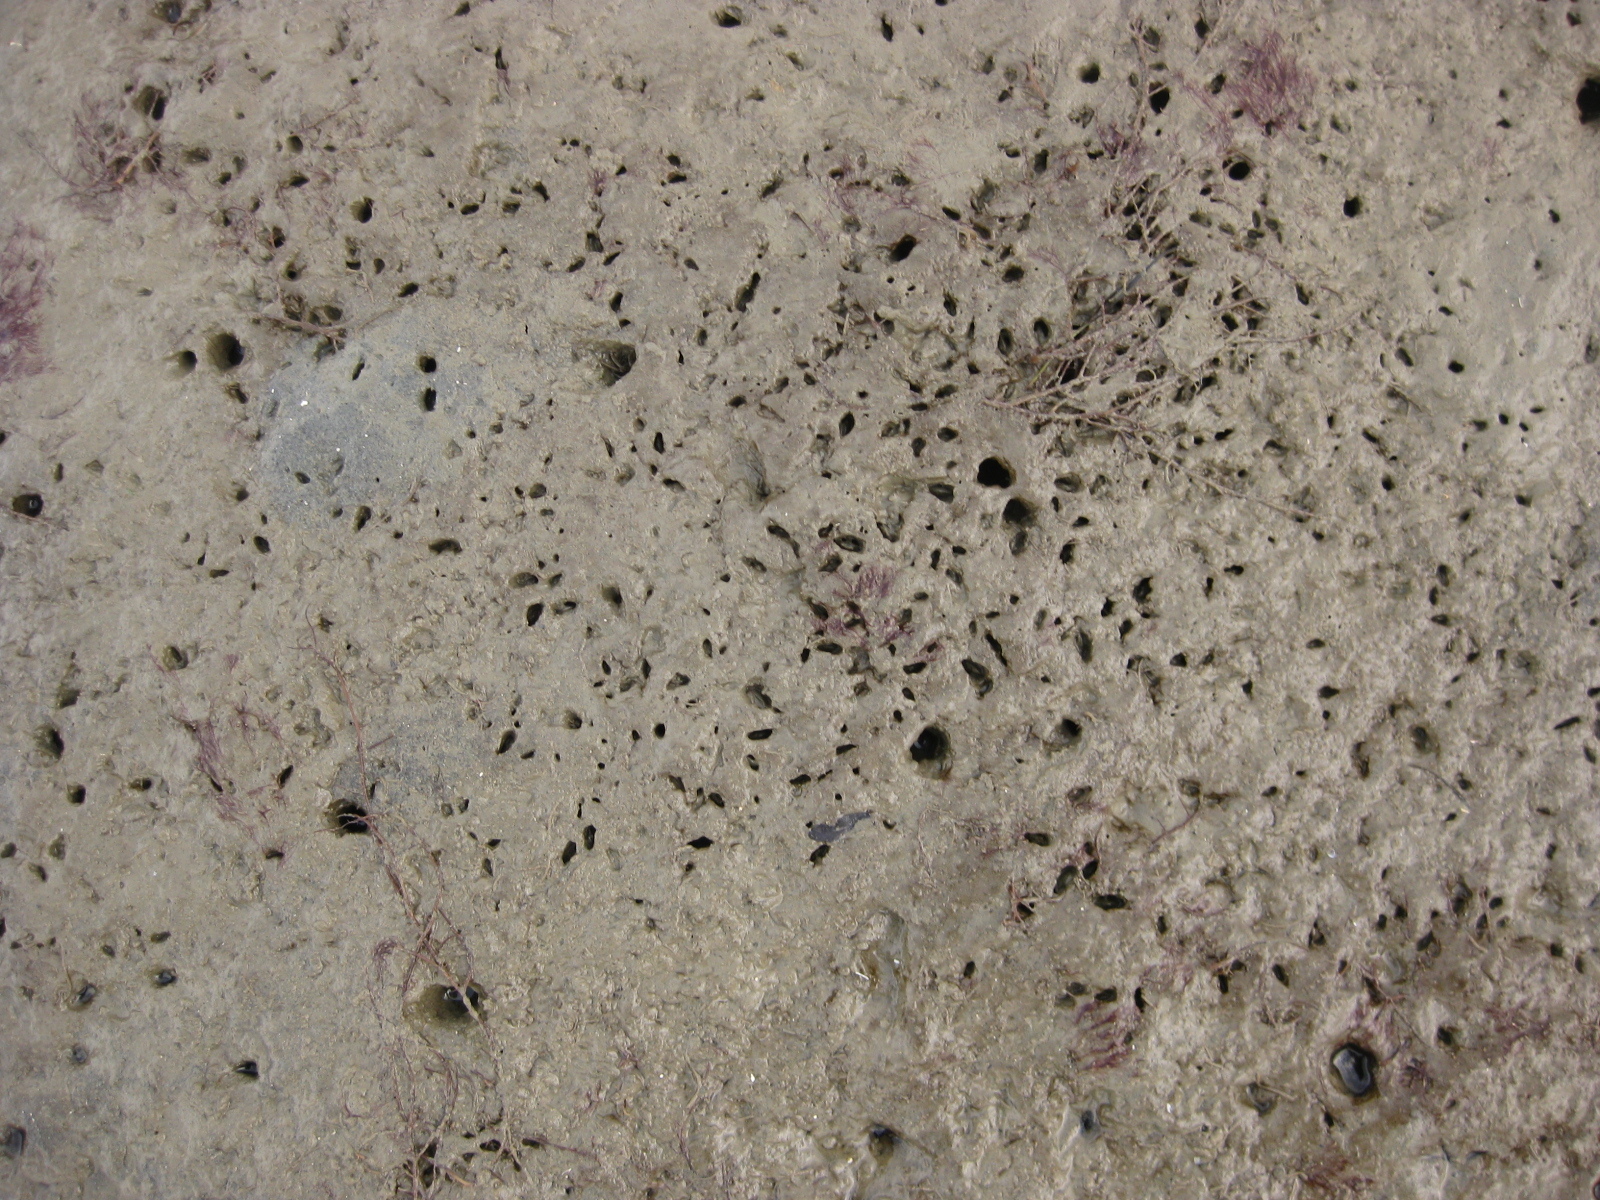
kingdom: Animalia
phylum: Mollusca
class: Bivalvia
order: Mytilida
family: Mytilidae
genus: Arcuatula
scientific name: Arcuatula senhousia
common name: Asian mussel
